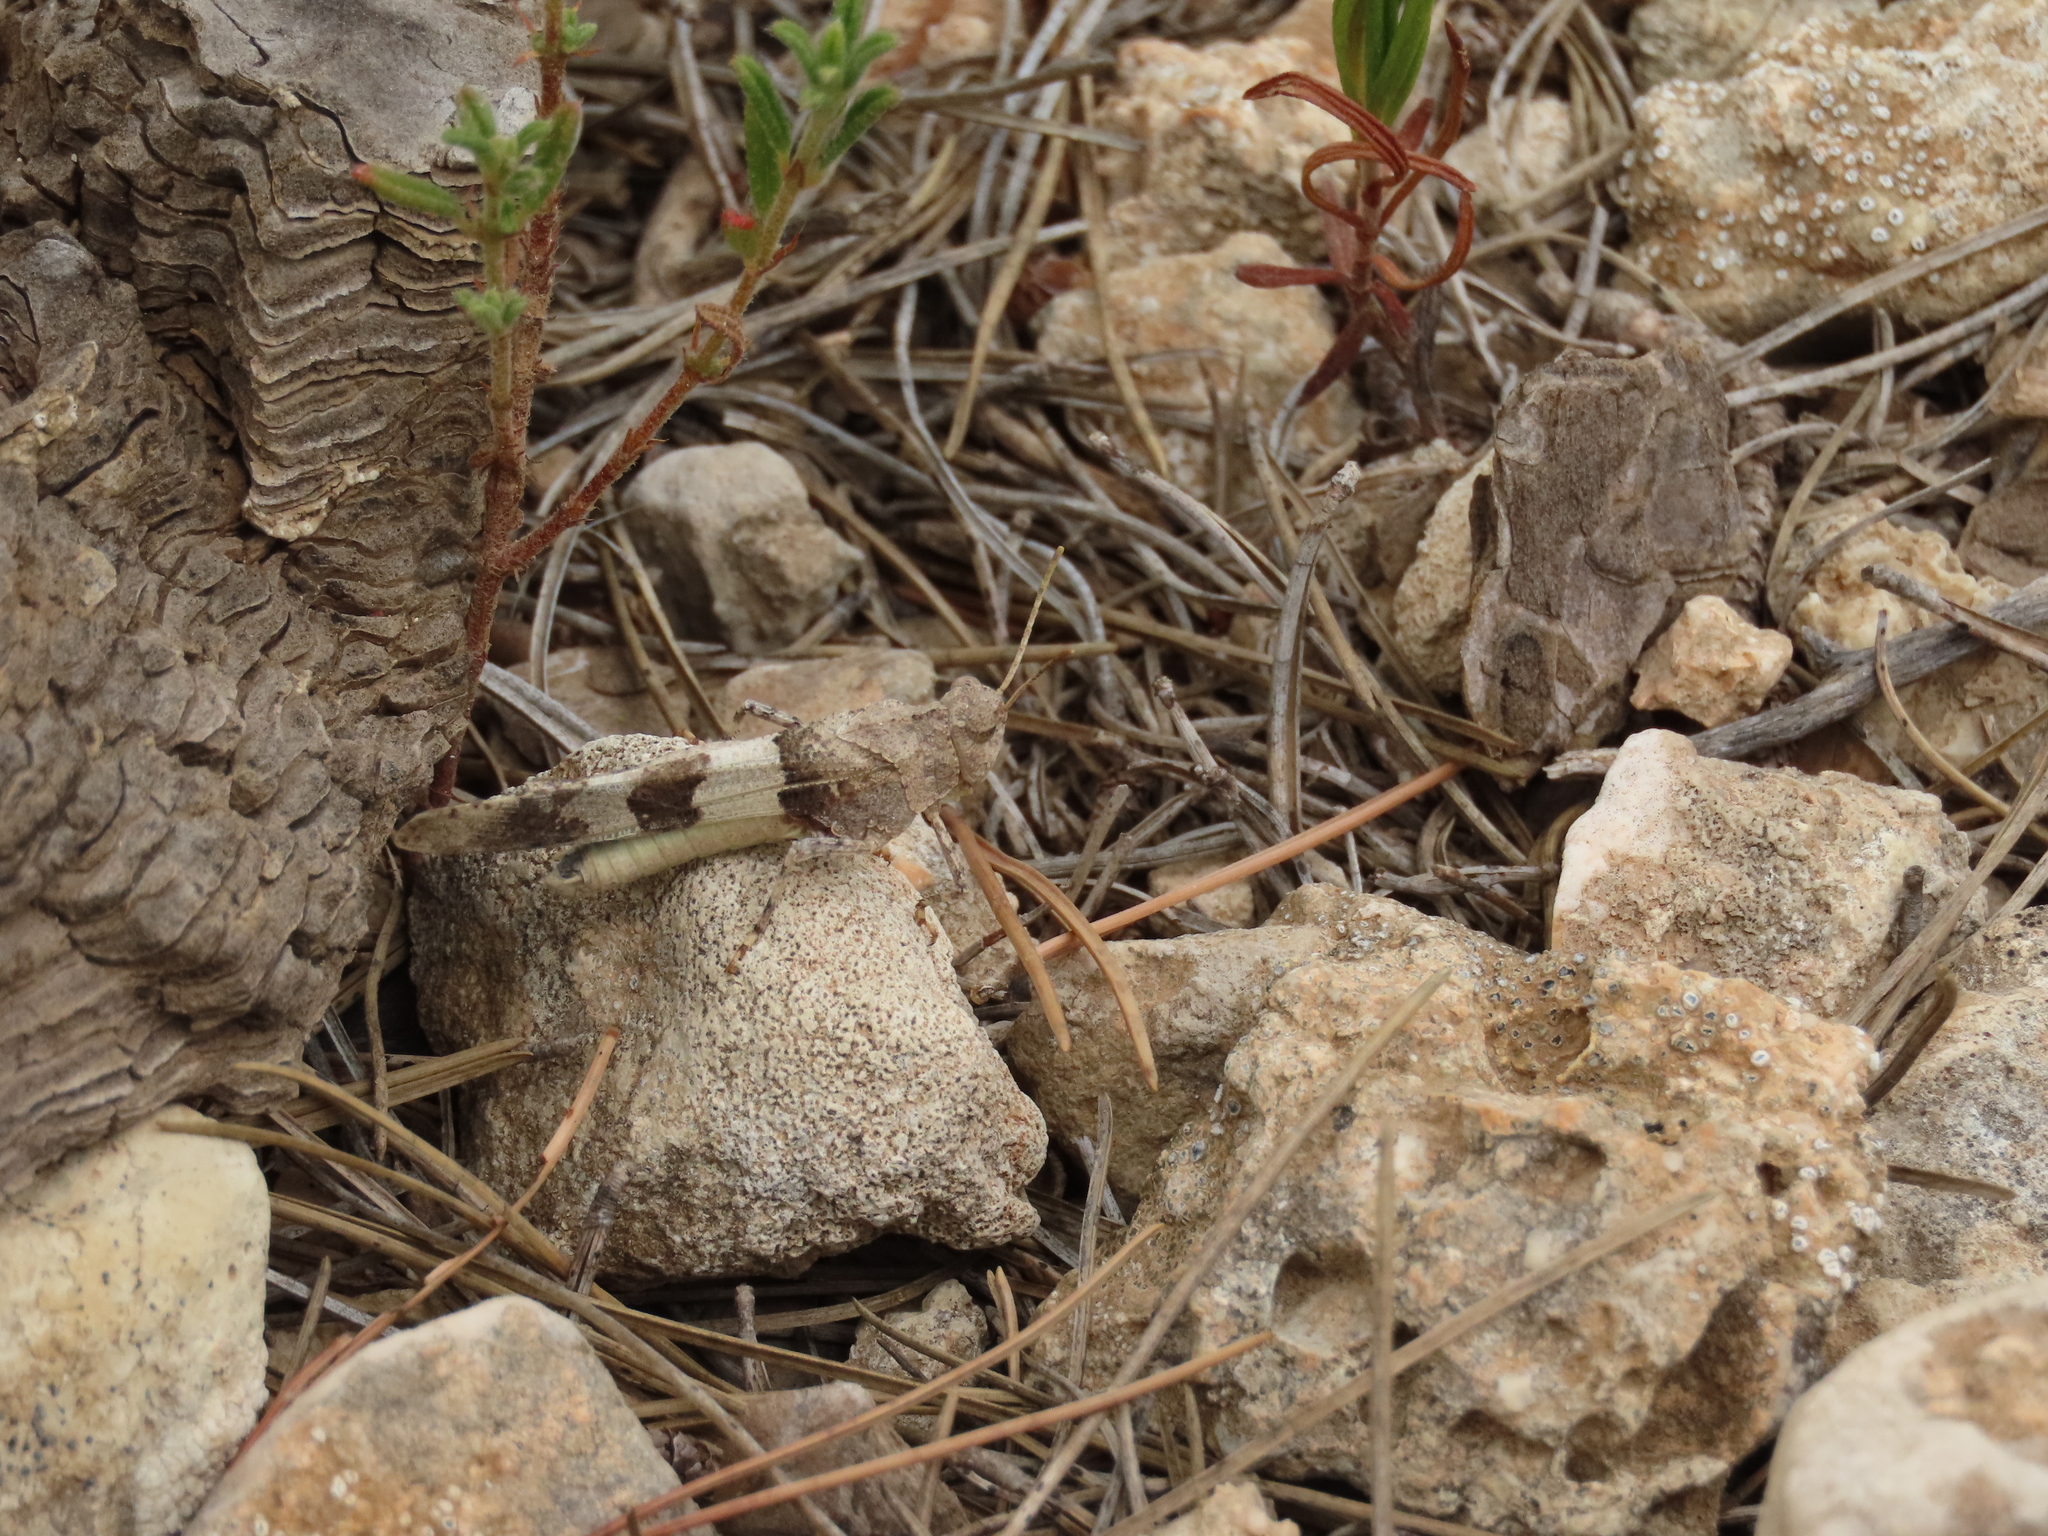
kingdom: Animalia
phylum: Arthropoda
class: Insecta
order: Orthoptera
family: Acrididae
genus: Oedipoda
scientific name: Oedipoda caerulescens
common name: Blue-winged grasshopper
